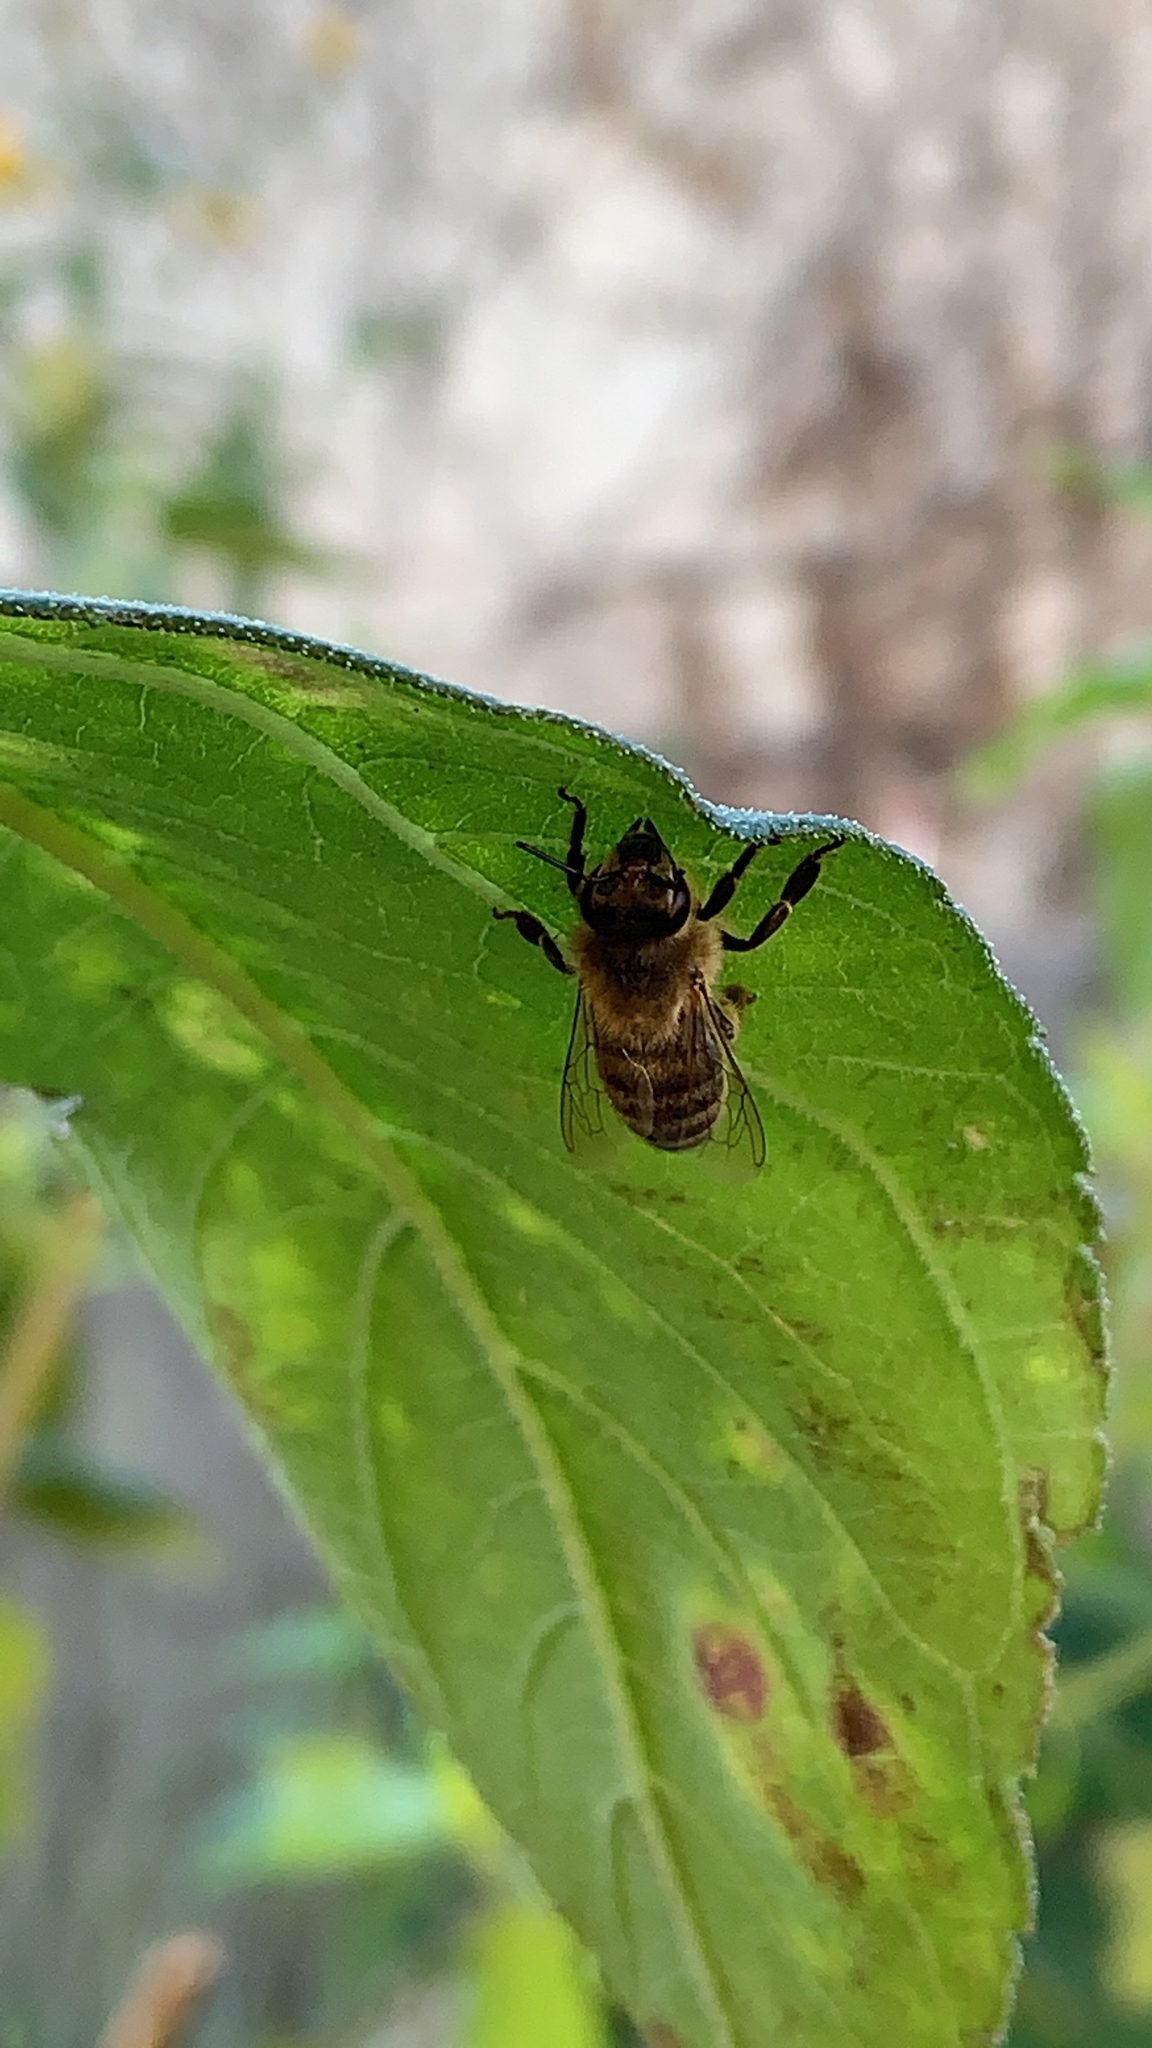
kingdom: Animalia
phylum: Arthropoda
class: Insecta
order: Hymenoptera
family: Apidae
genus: Apis
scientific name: Apis mellifera
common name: Honey bee
